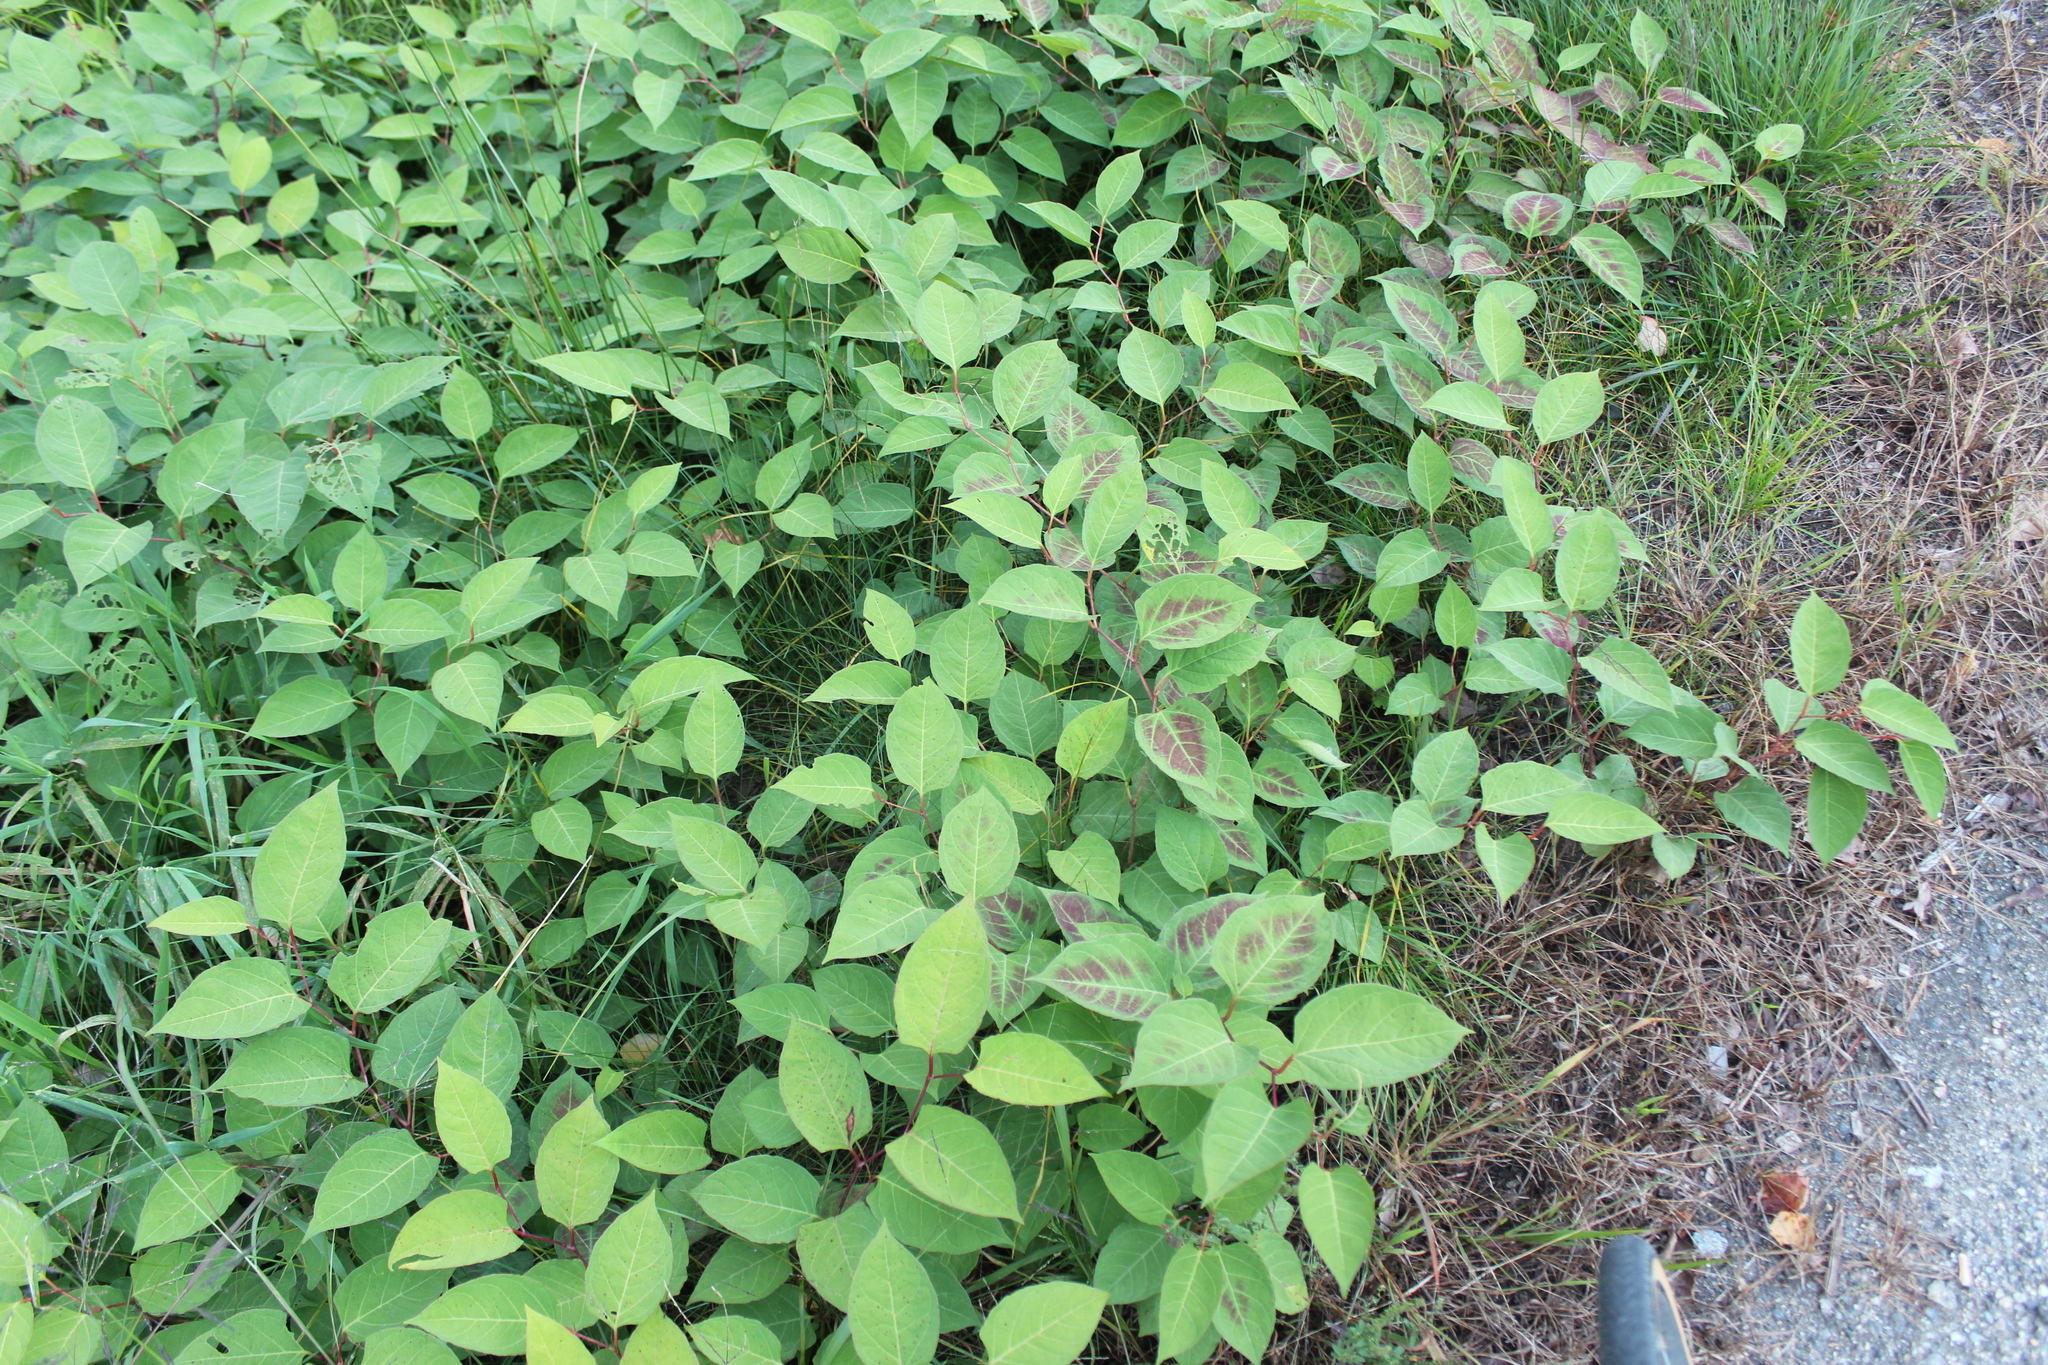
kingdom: Plantae
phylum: Tracheophyta
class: Magnoliopsida
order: Caryophyllales
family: Polygonaceae
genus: Reynoutria
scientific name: Reynoutria japonica
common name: Japanese knotweed
